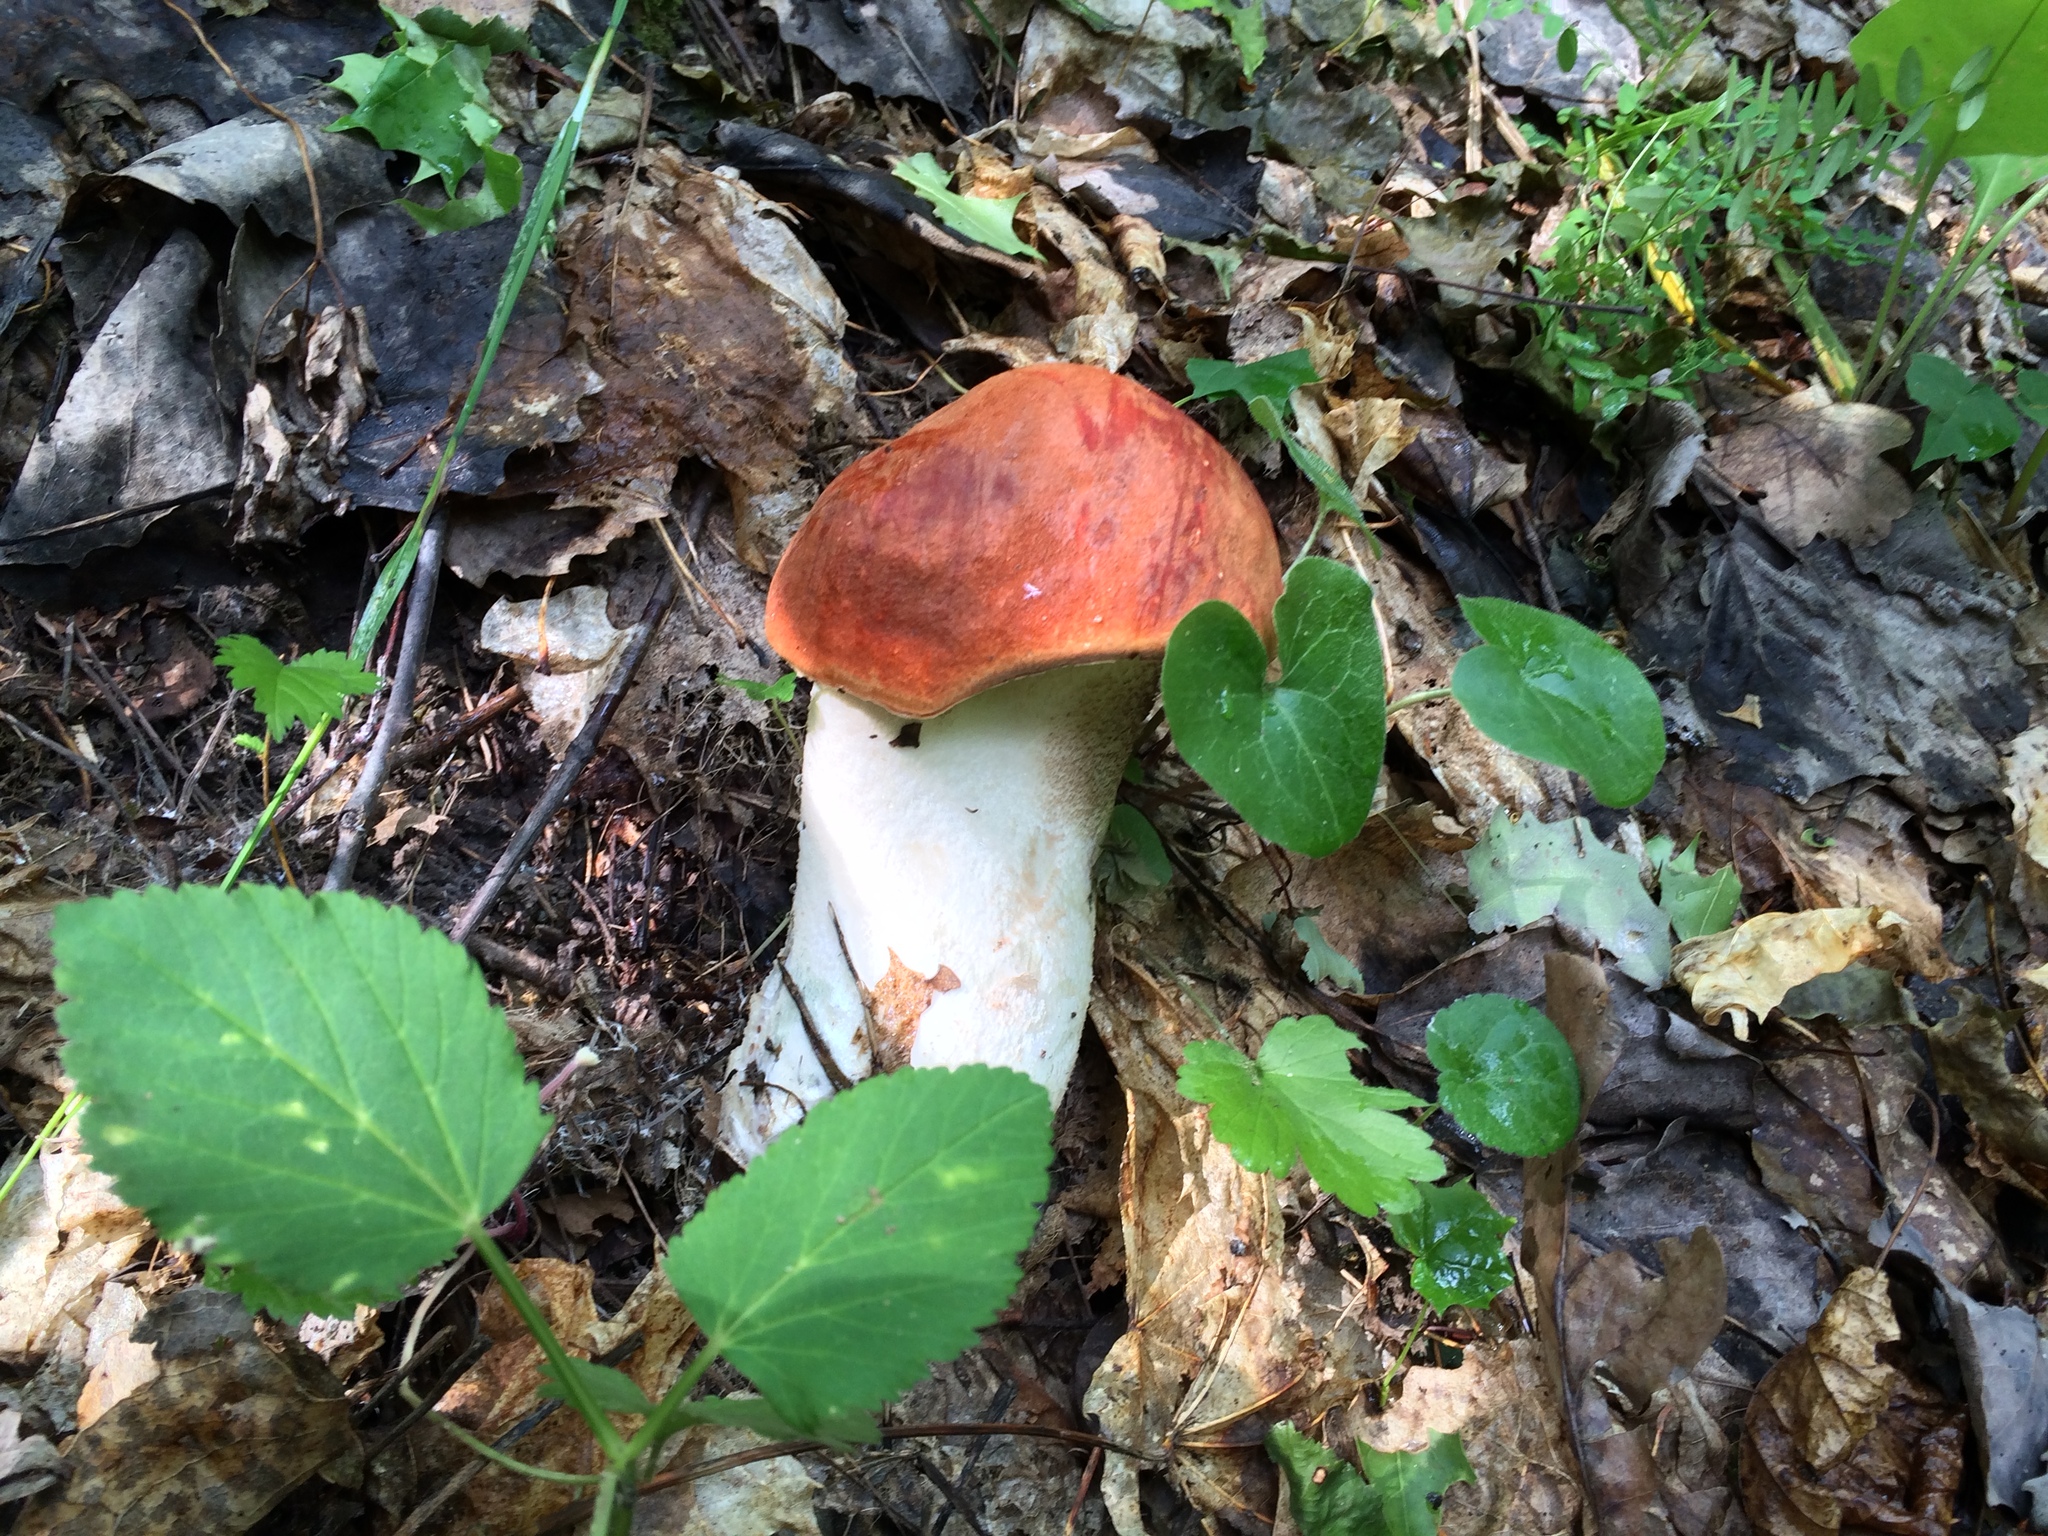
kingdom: Fungi
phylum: Basidiomycota
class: Agaricomycetes
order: Boletales
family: Boletaceae
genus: Leccinum
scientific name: Leccinum albostipitatum
